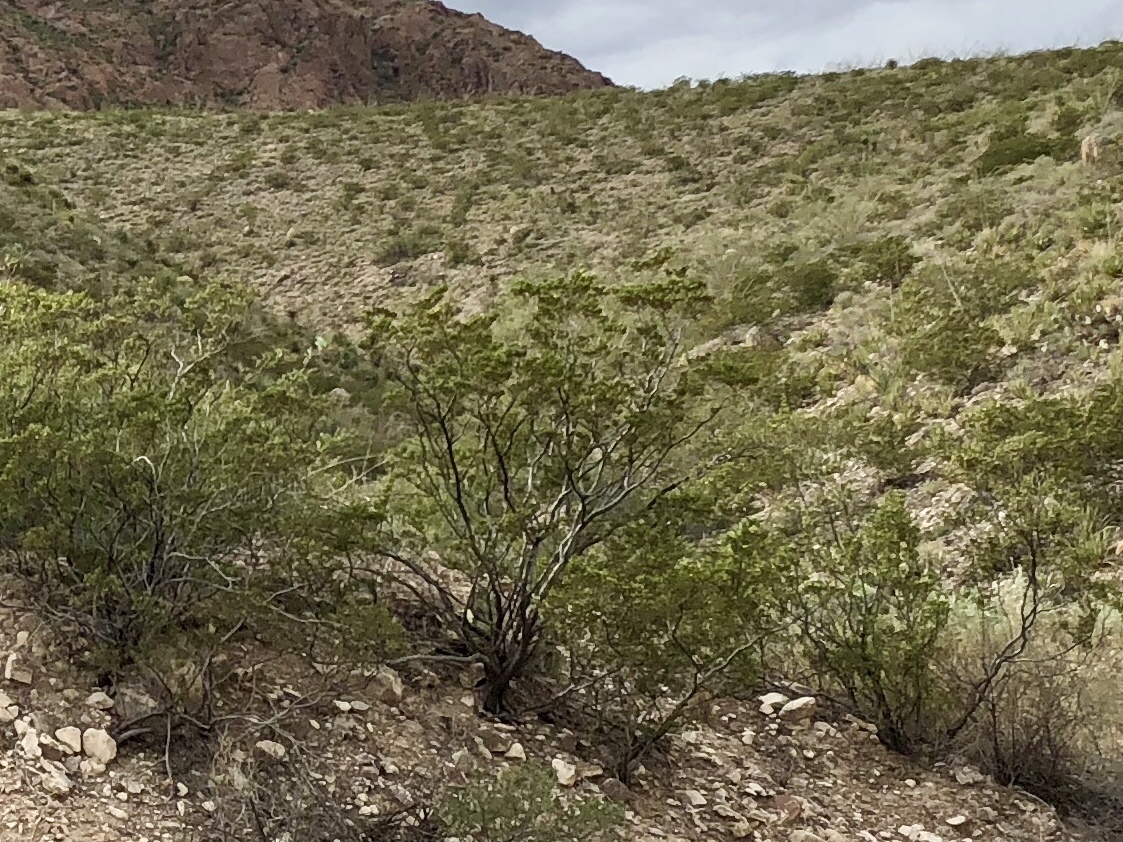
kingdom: Plantae
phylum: Tracheophyta
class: Magnoliopsida
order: Zygophyllales
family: Zygophyllaceae
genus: Larrea
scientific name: Larrea tridentata
